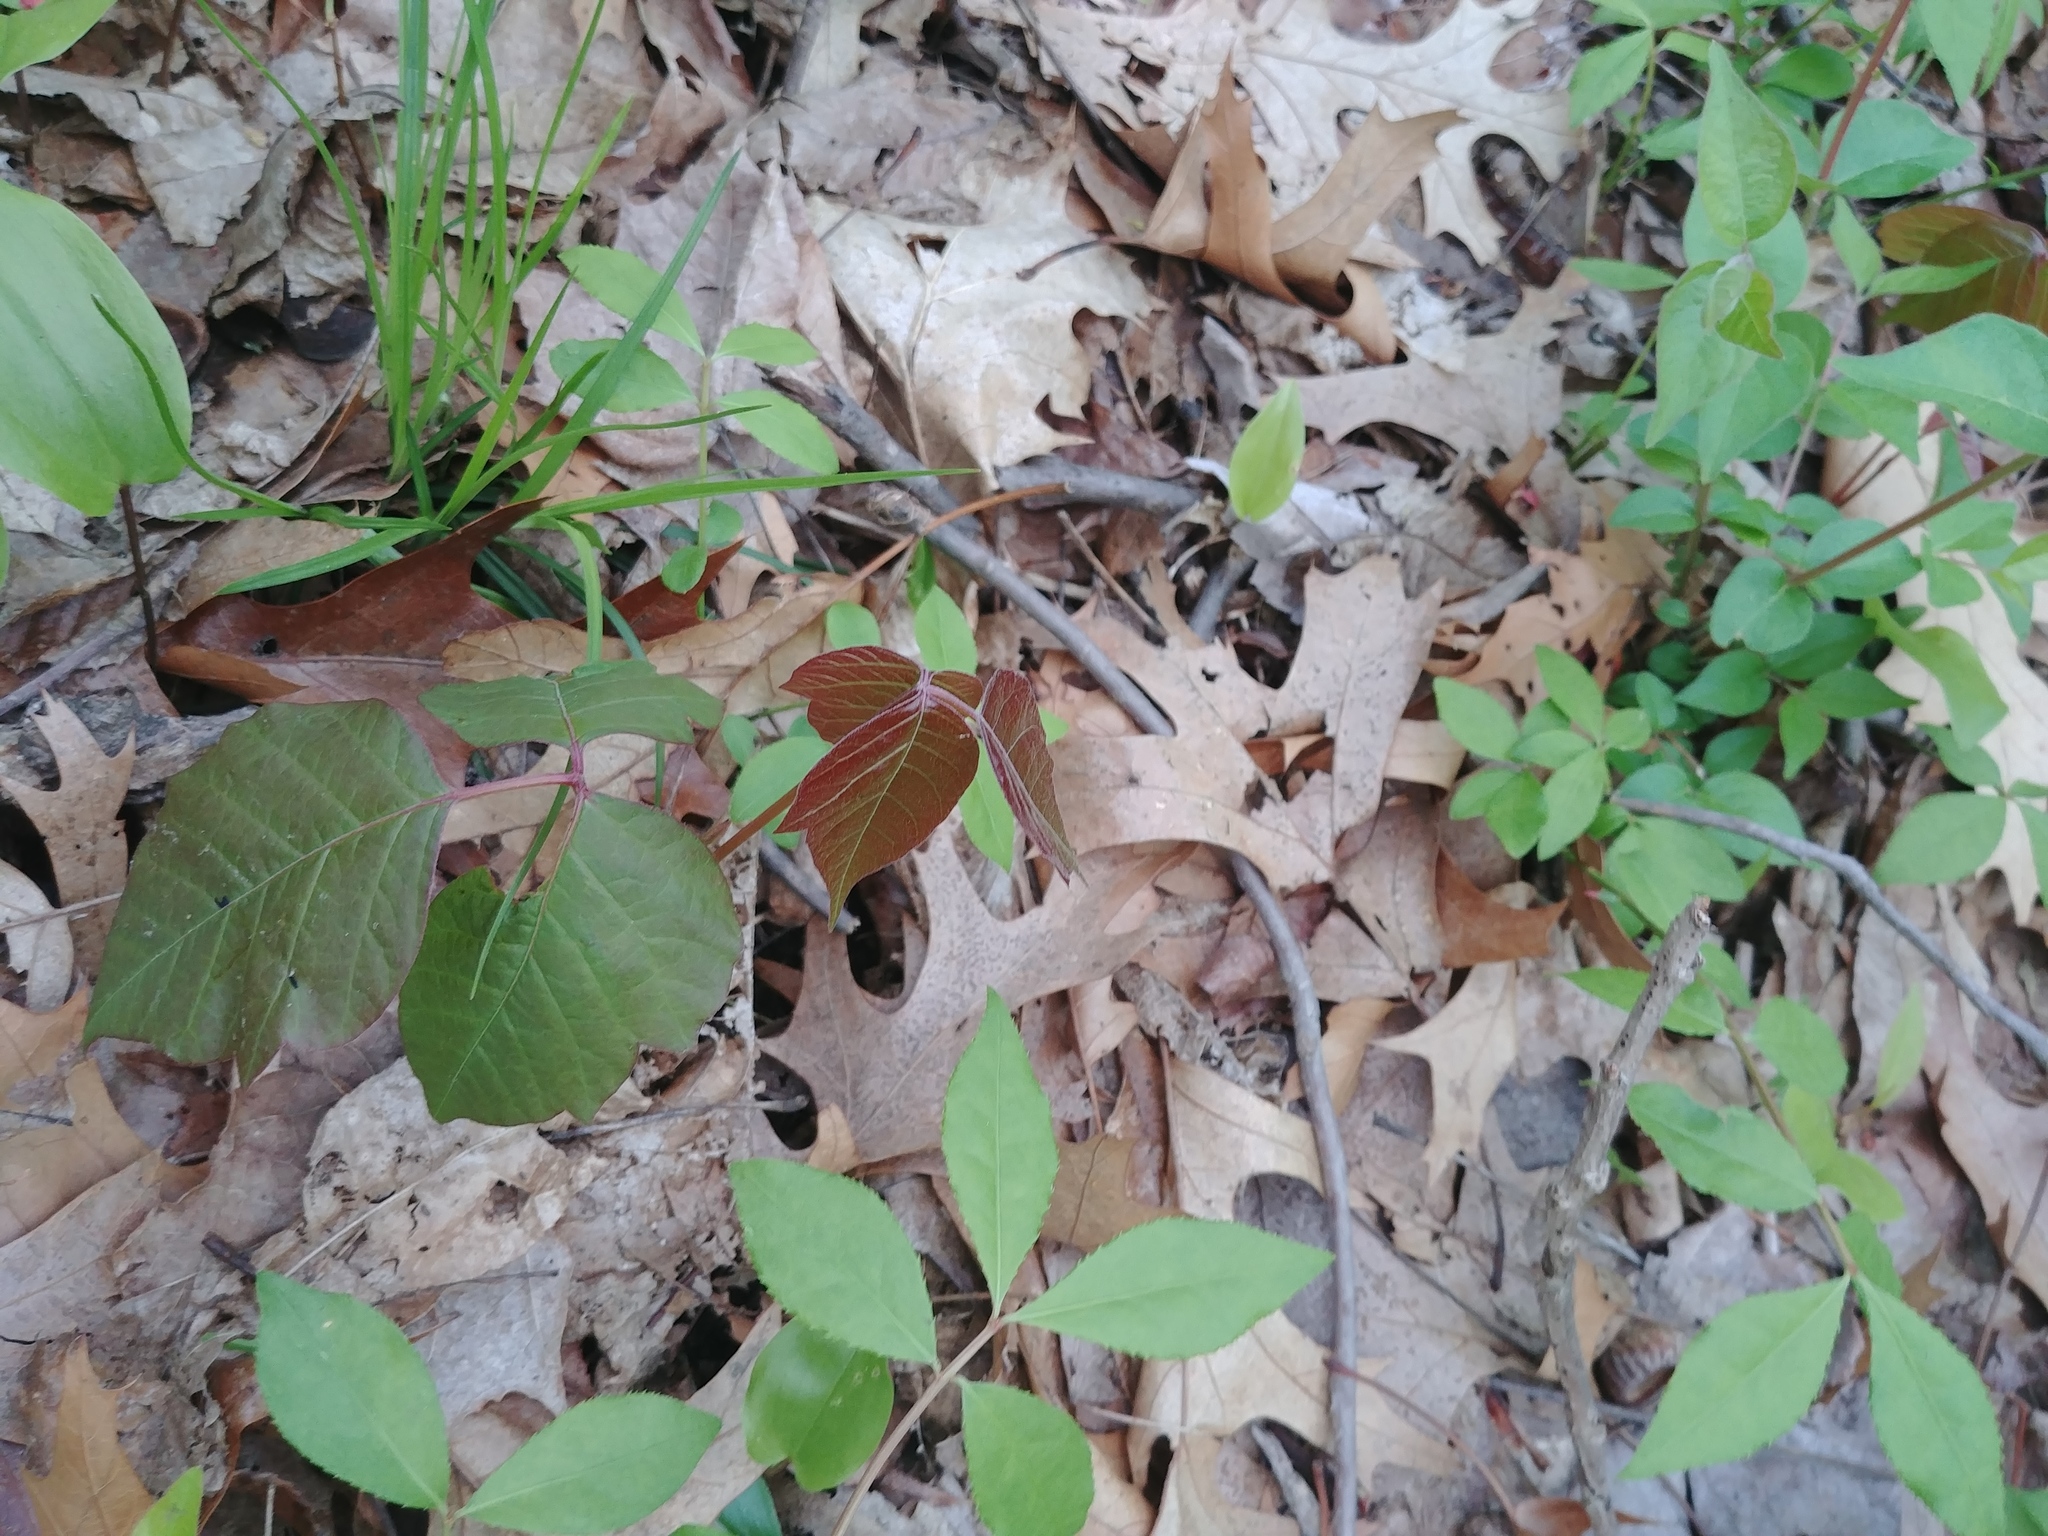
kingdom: Plantae
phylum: Tracheophyta
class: Magnoliopsida
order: Sapindales
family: Anacardiaceae
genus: Toxicodendron
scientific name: Toxicodendron radicans
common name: Poison ivy
